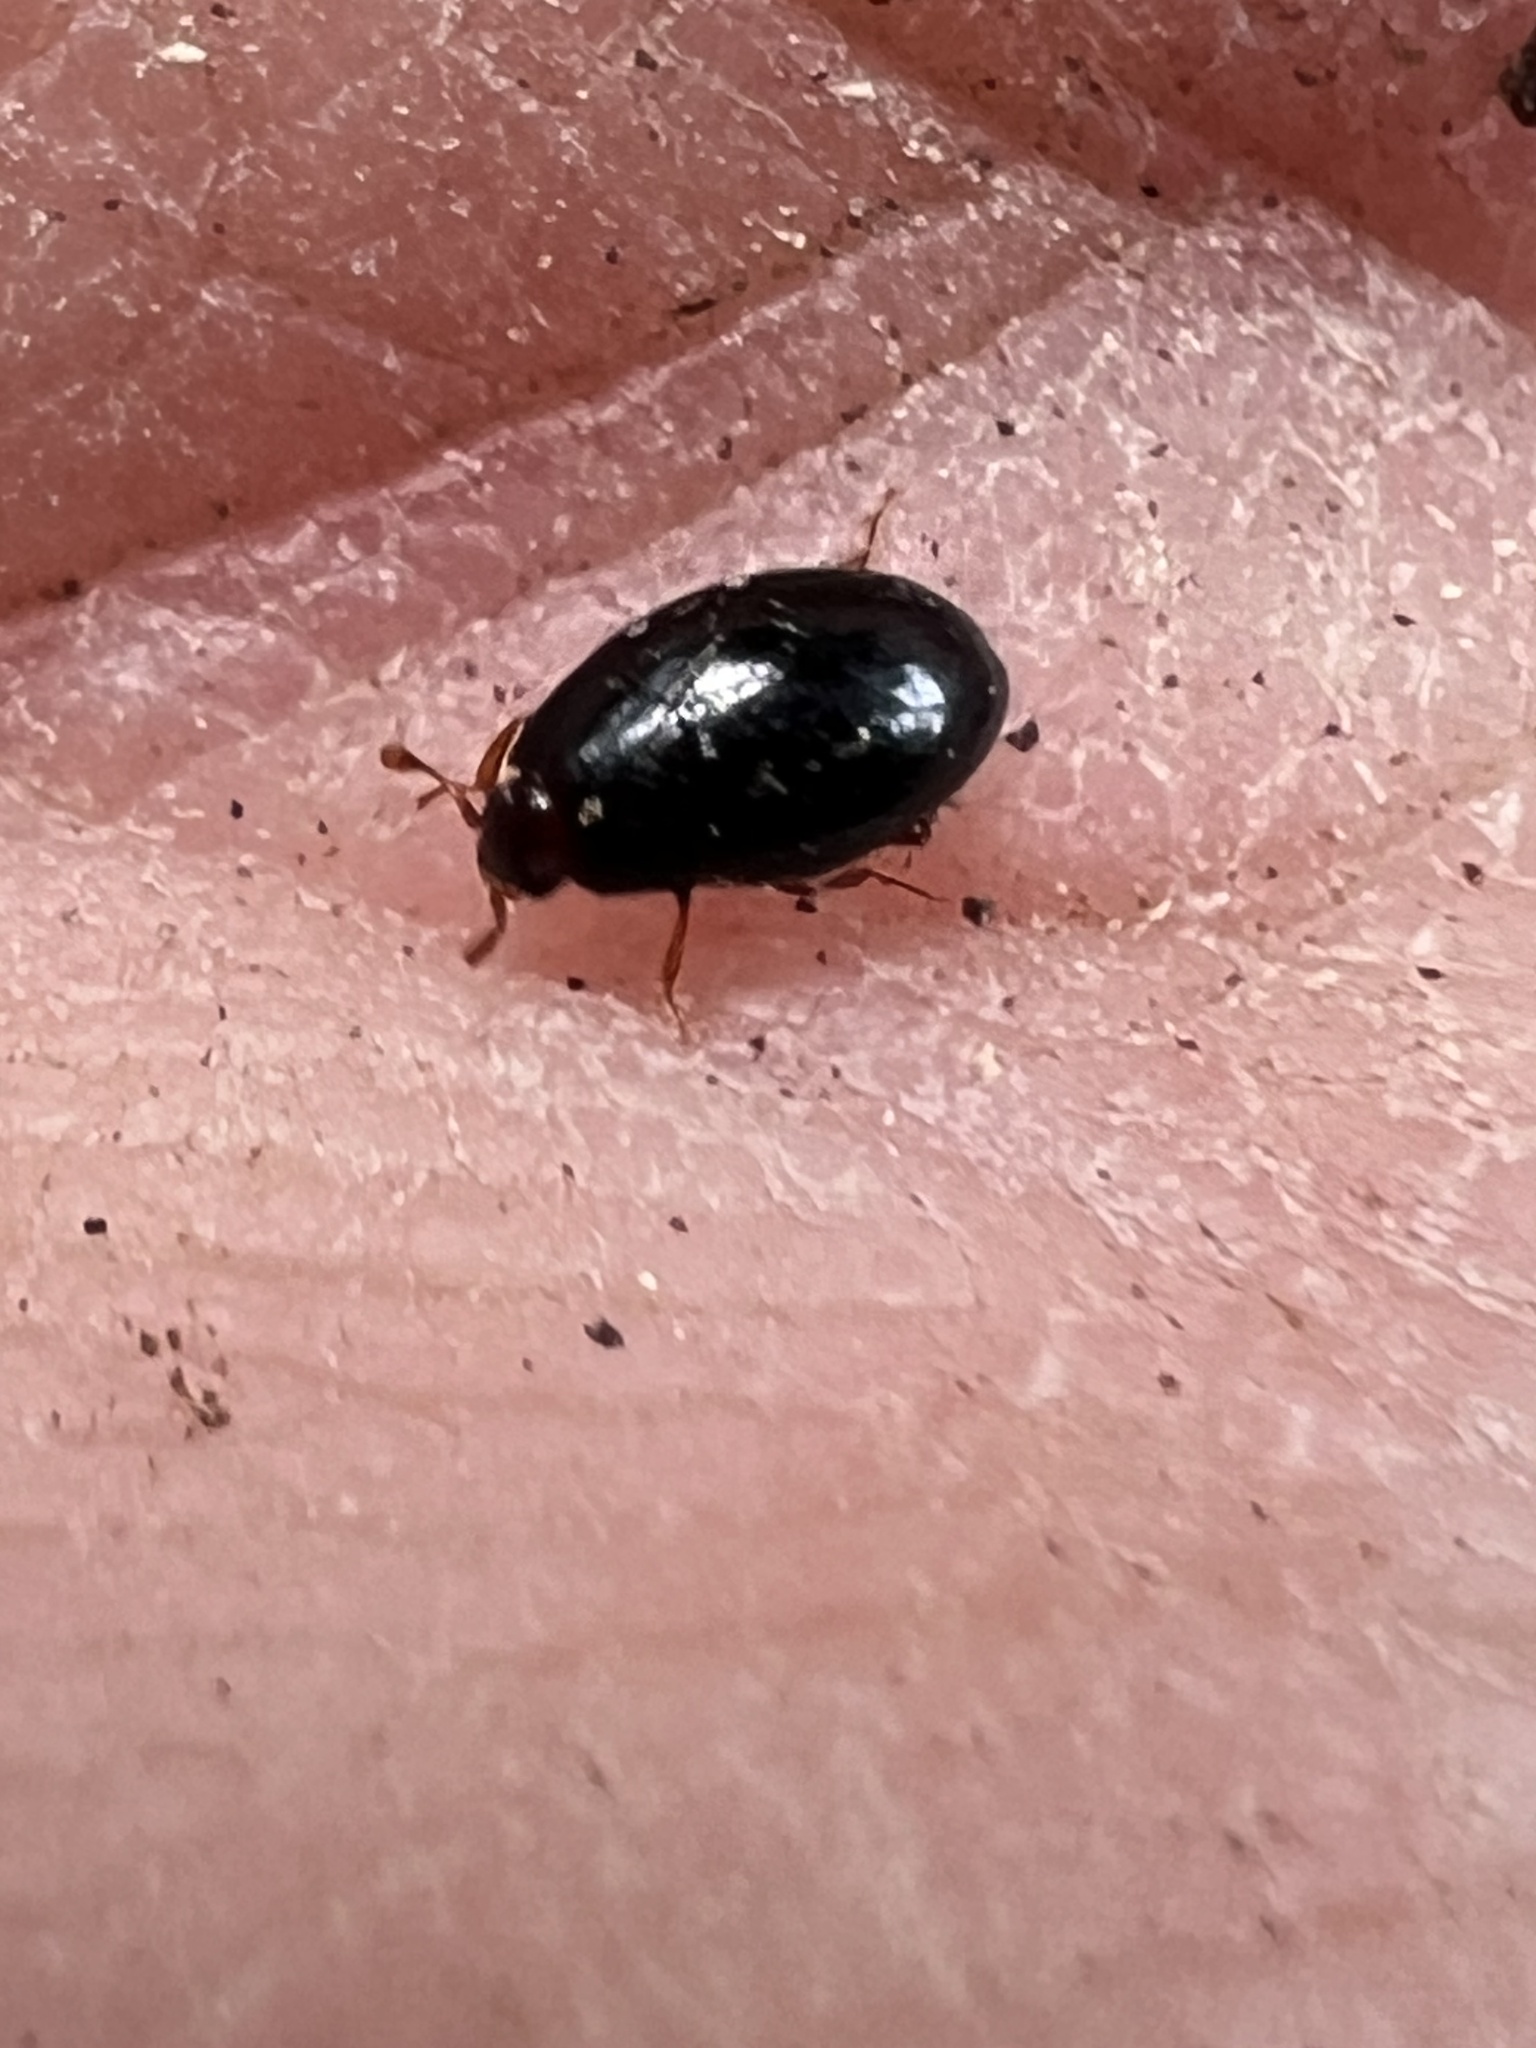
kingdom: Animalia
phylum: Arthropoda
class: Insecta
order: Coleoptera
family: Cerylonidae
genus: Hypodacnella
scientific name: Hypodacnella
